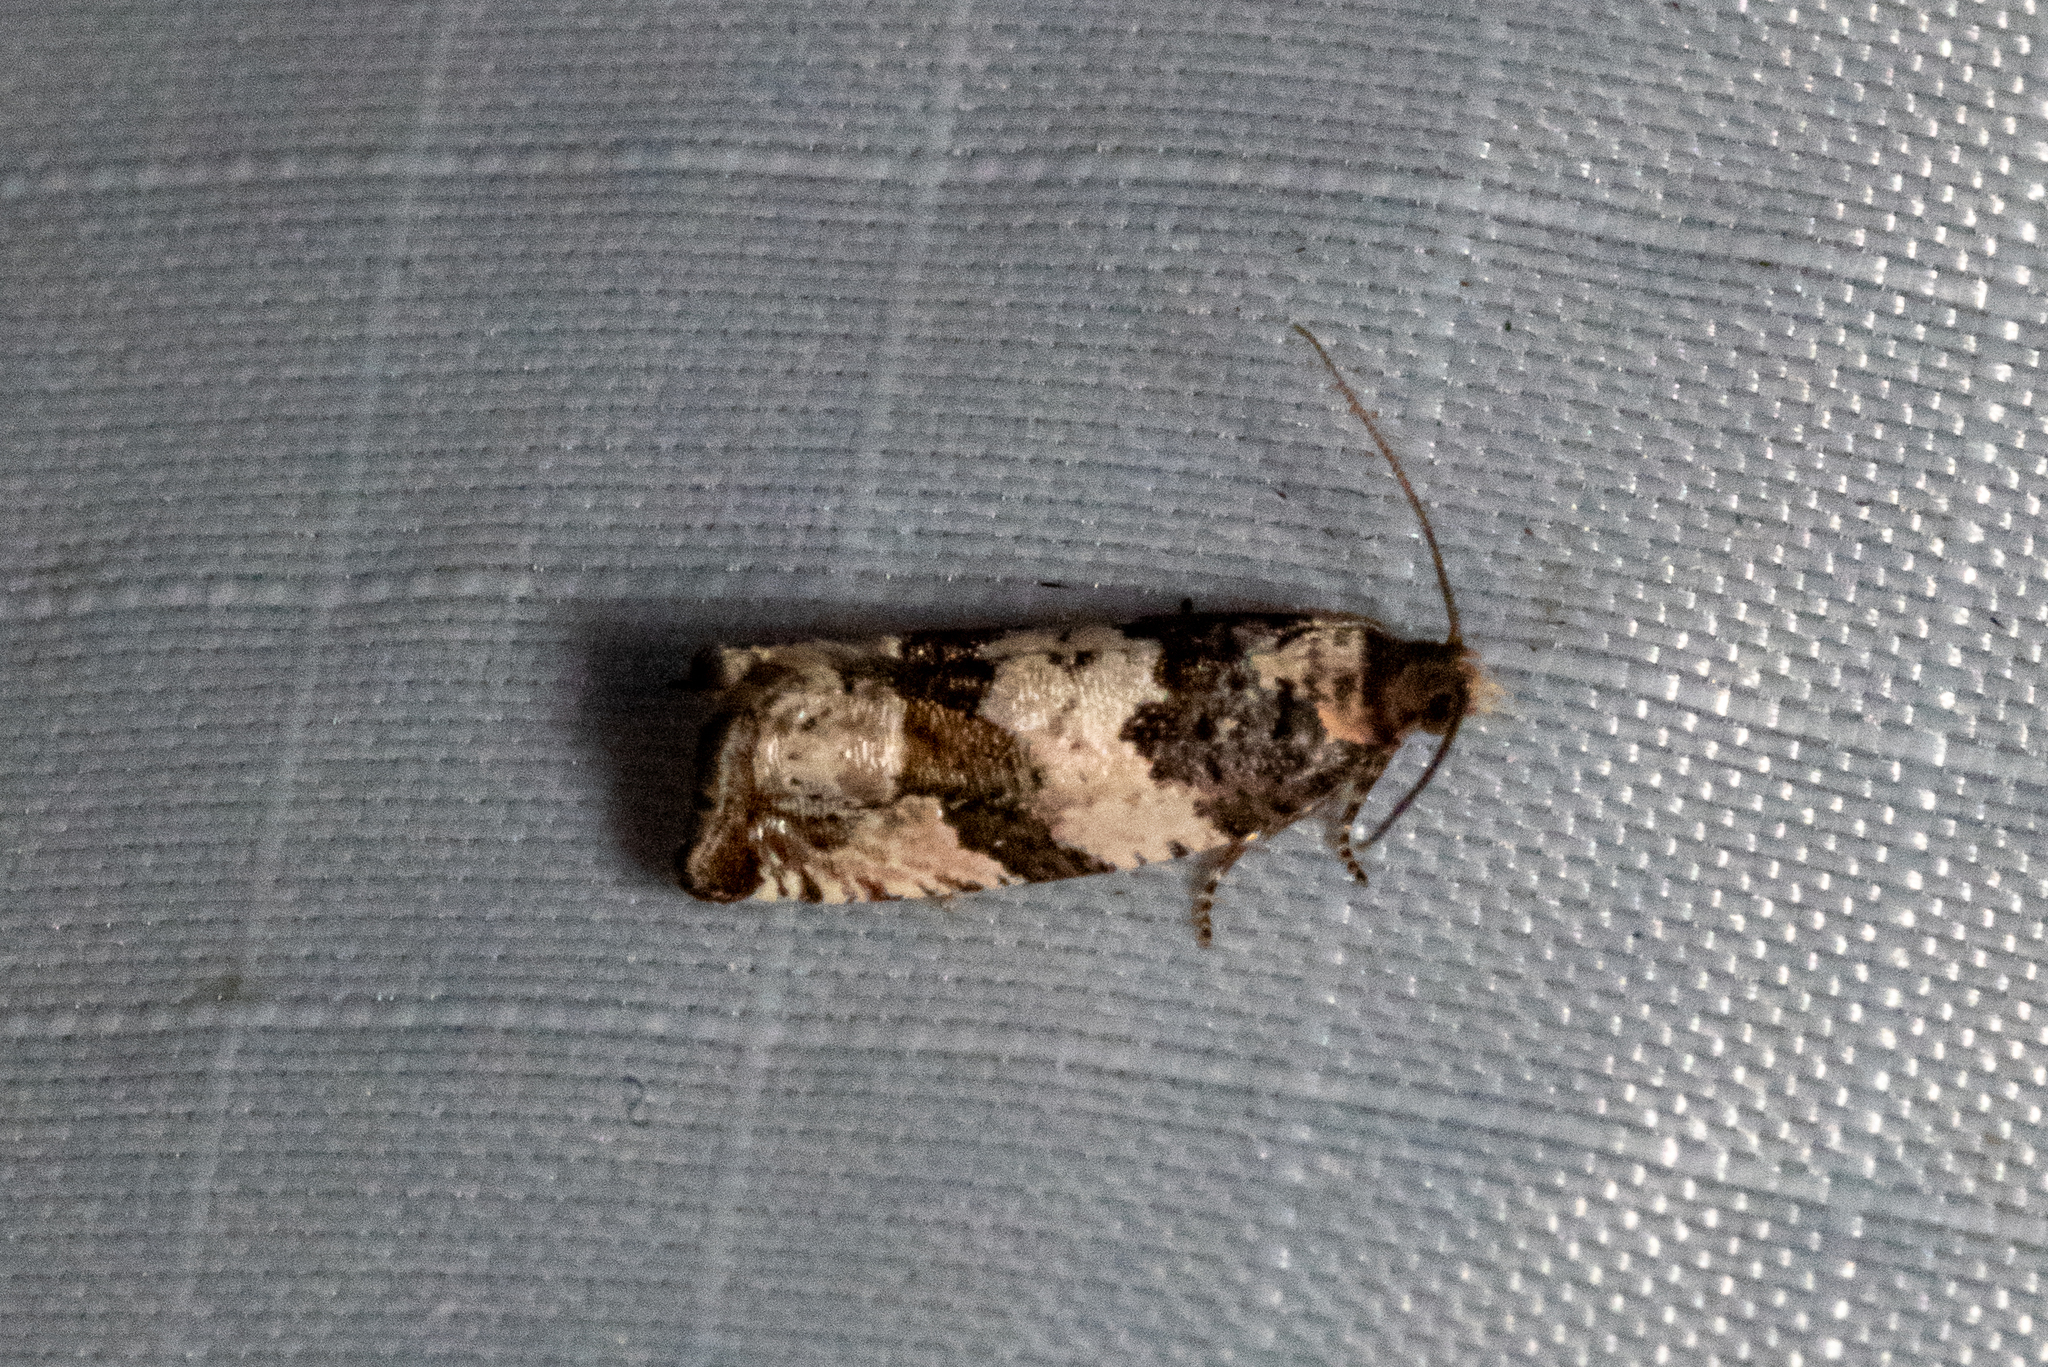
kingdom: Animalia
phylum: Arthropoda
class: Insecta
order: Lepidoptera
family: Tortricidae
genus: Gypsonoma
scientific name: Gypsonoma fasciolana
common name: Willow-and-poplar leafroller
